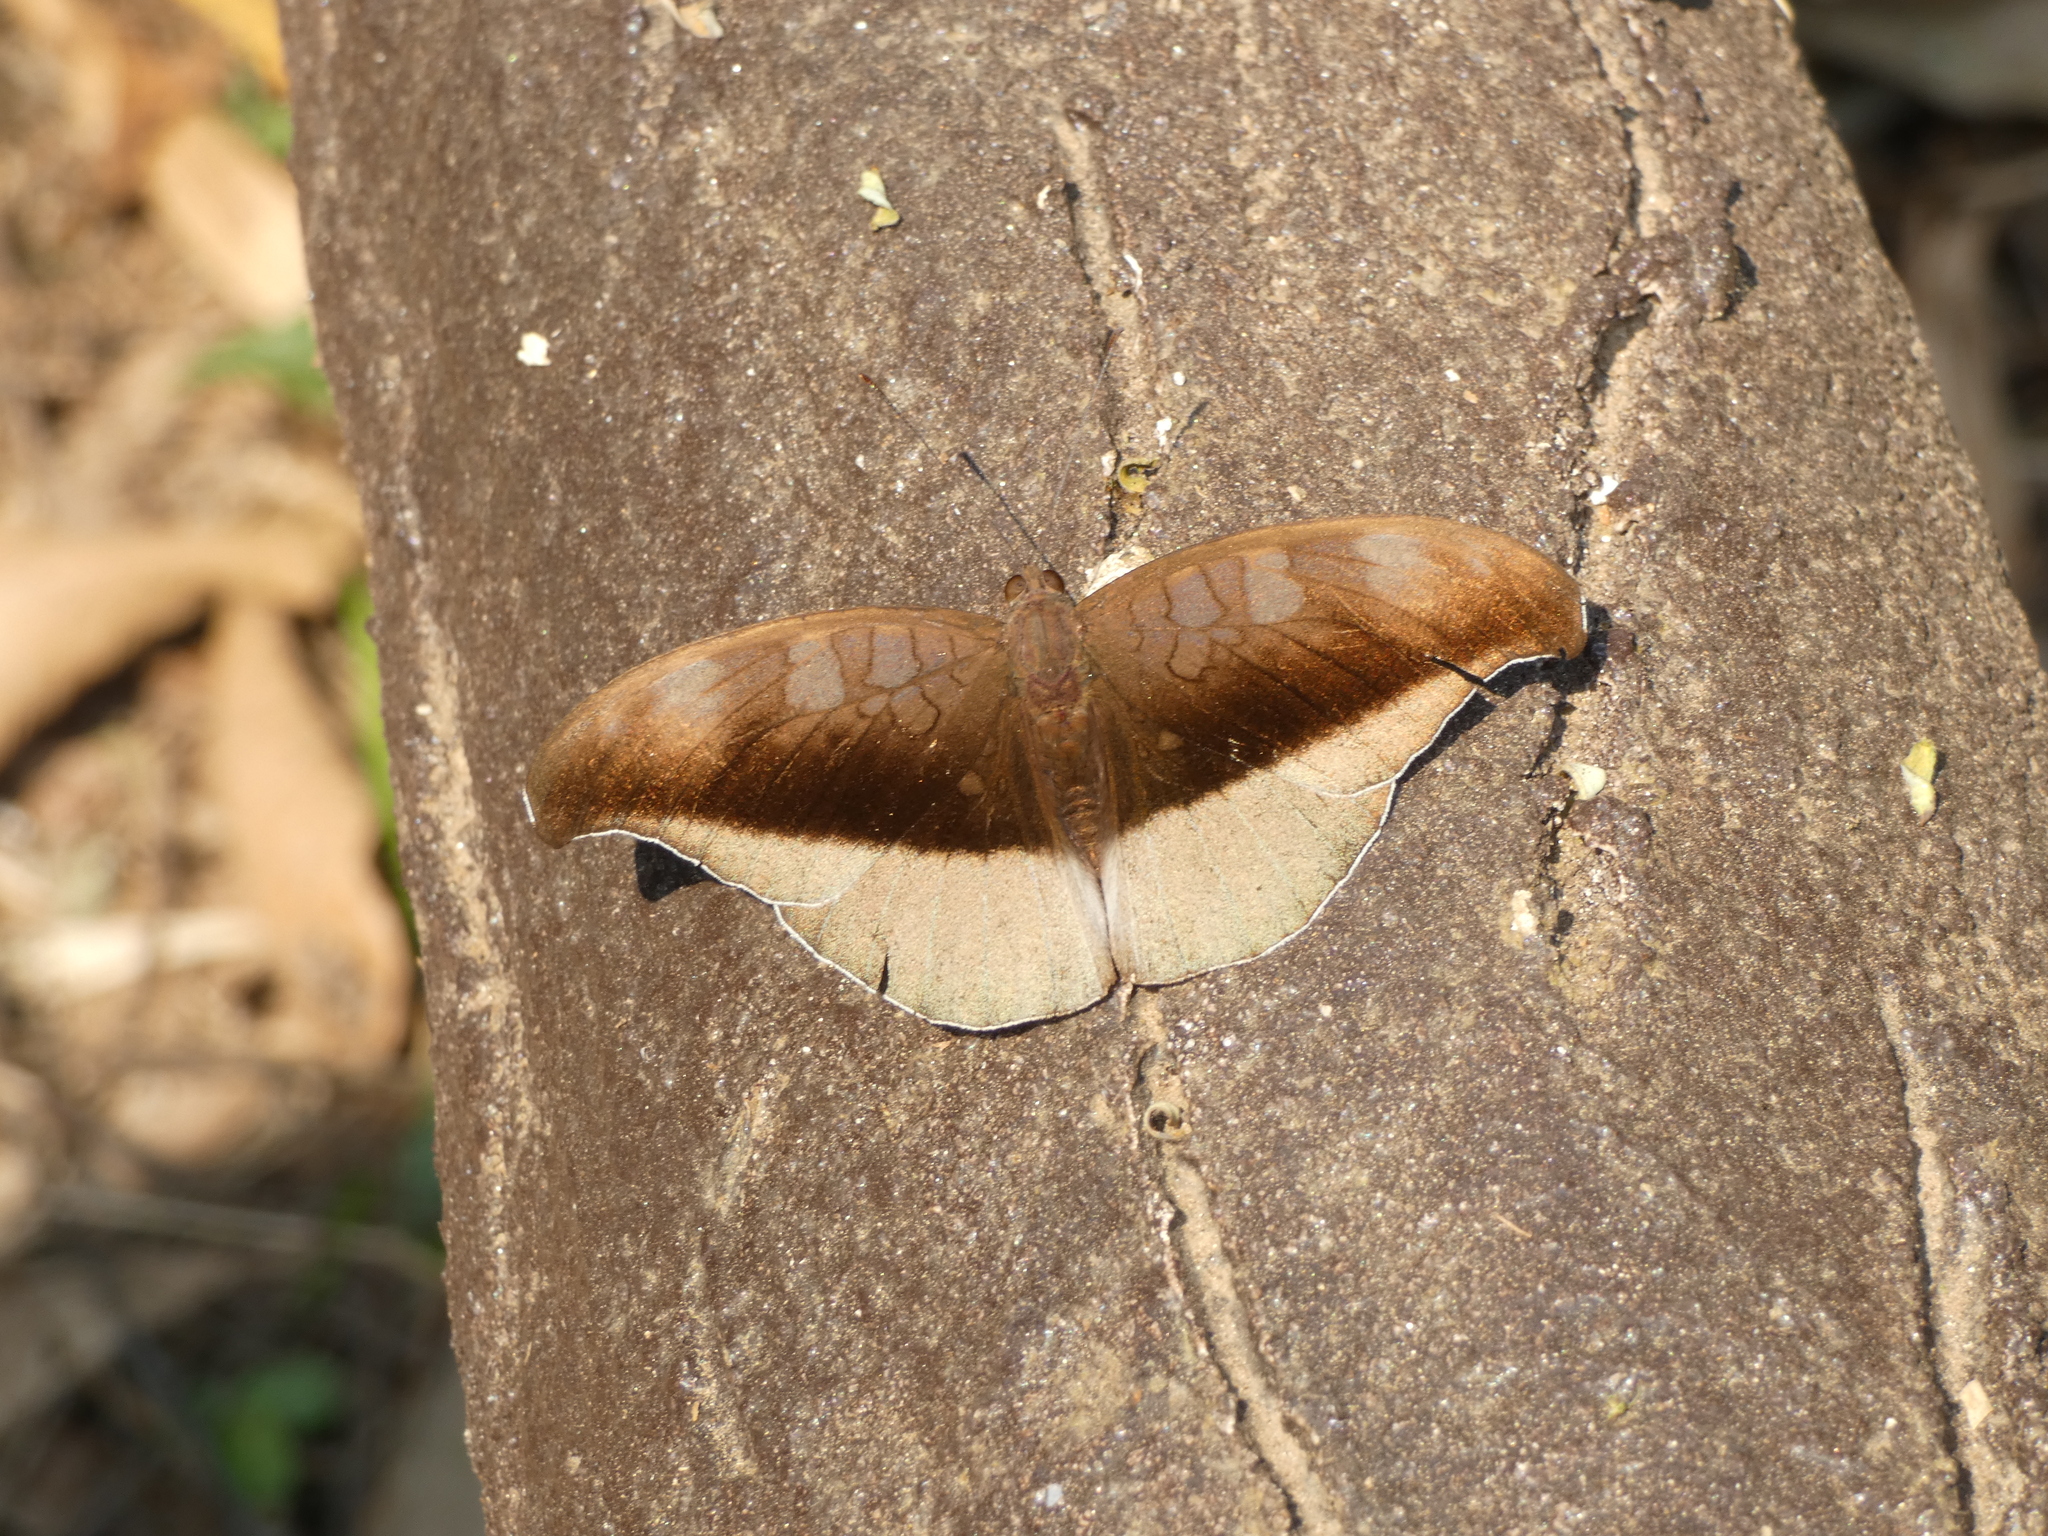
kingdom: Animalia
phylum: Arthropoda
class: Insecta
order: Lepidoptera
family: Nymphalidae
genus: Tanaecia
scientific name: Tanaecia cocytus
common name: Lavender count
